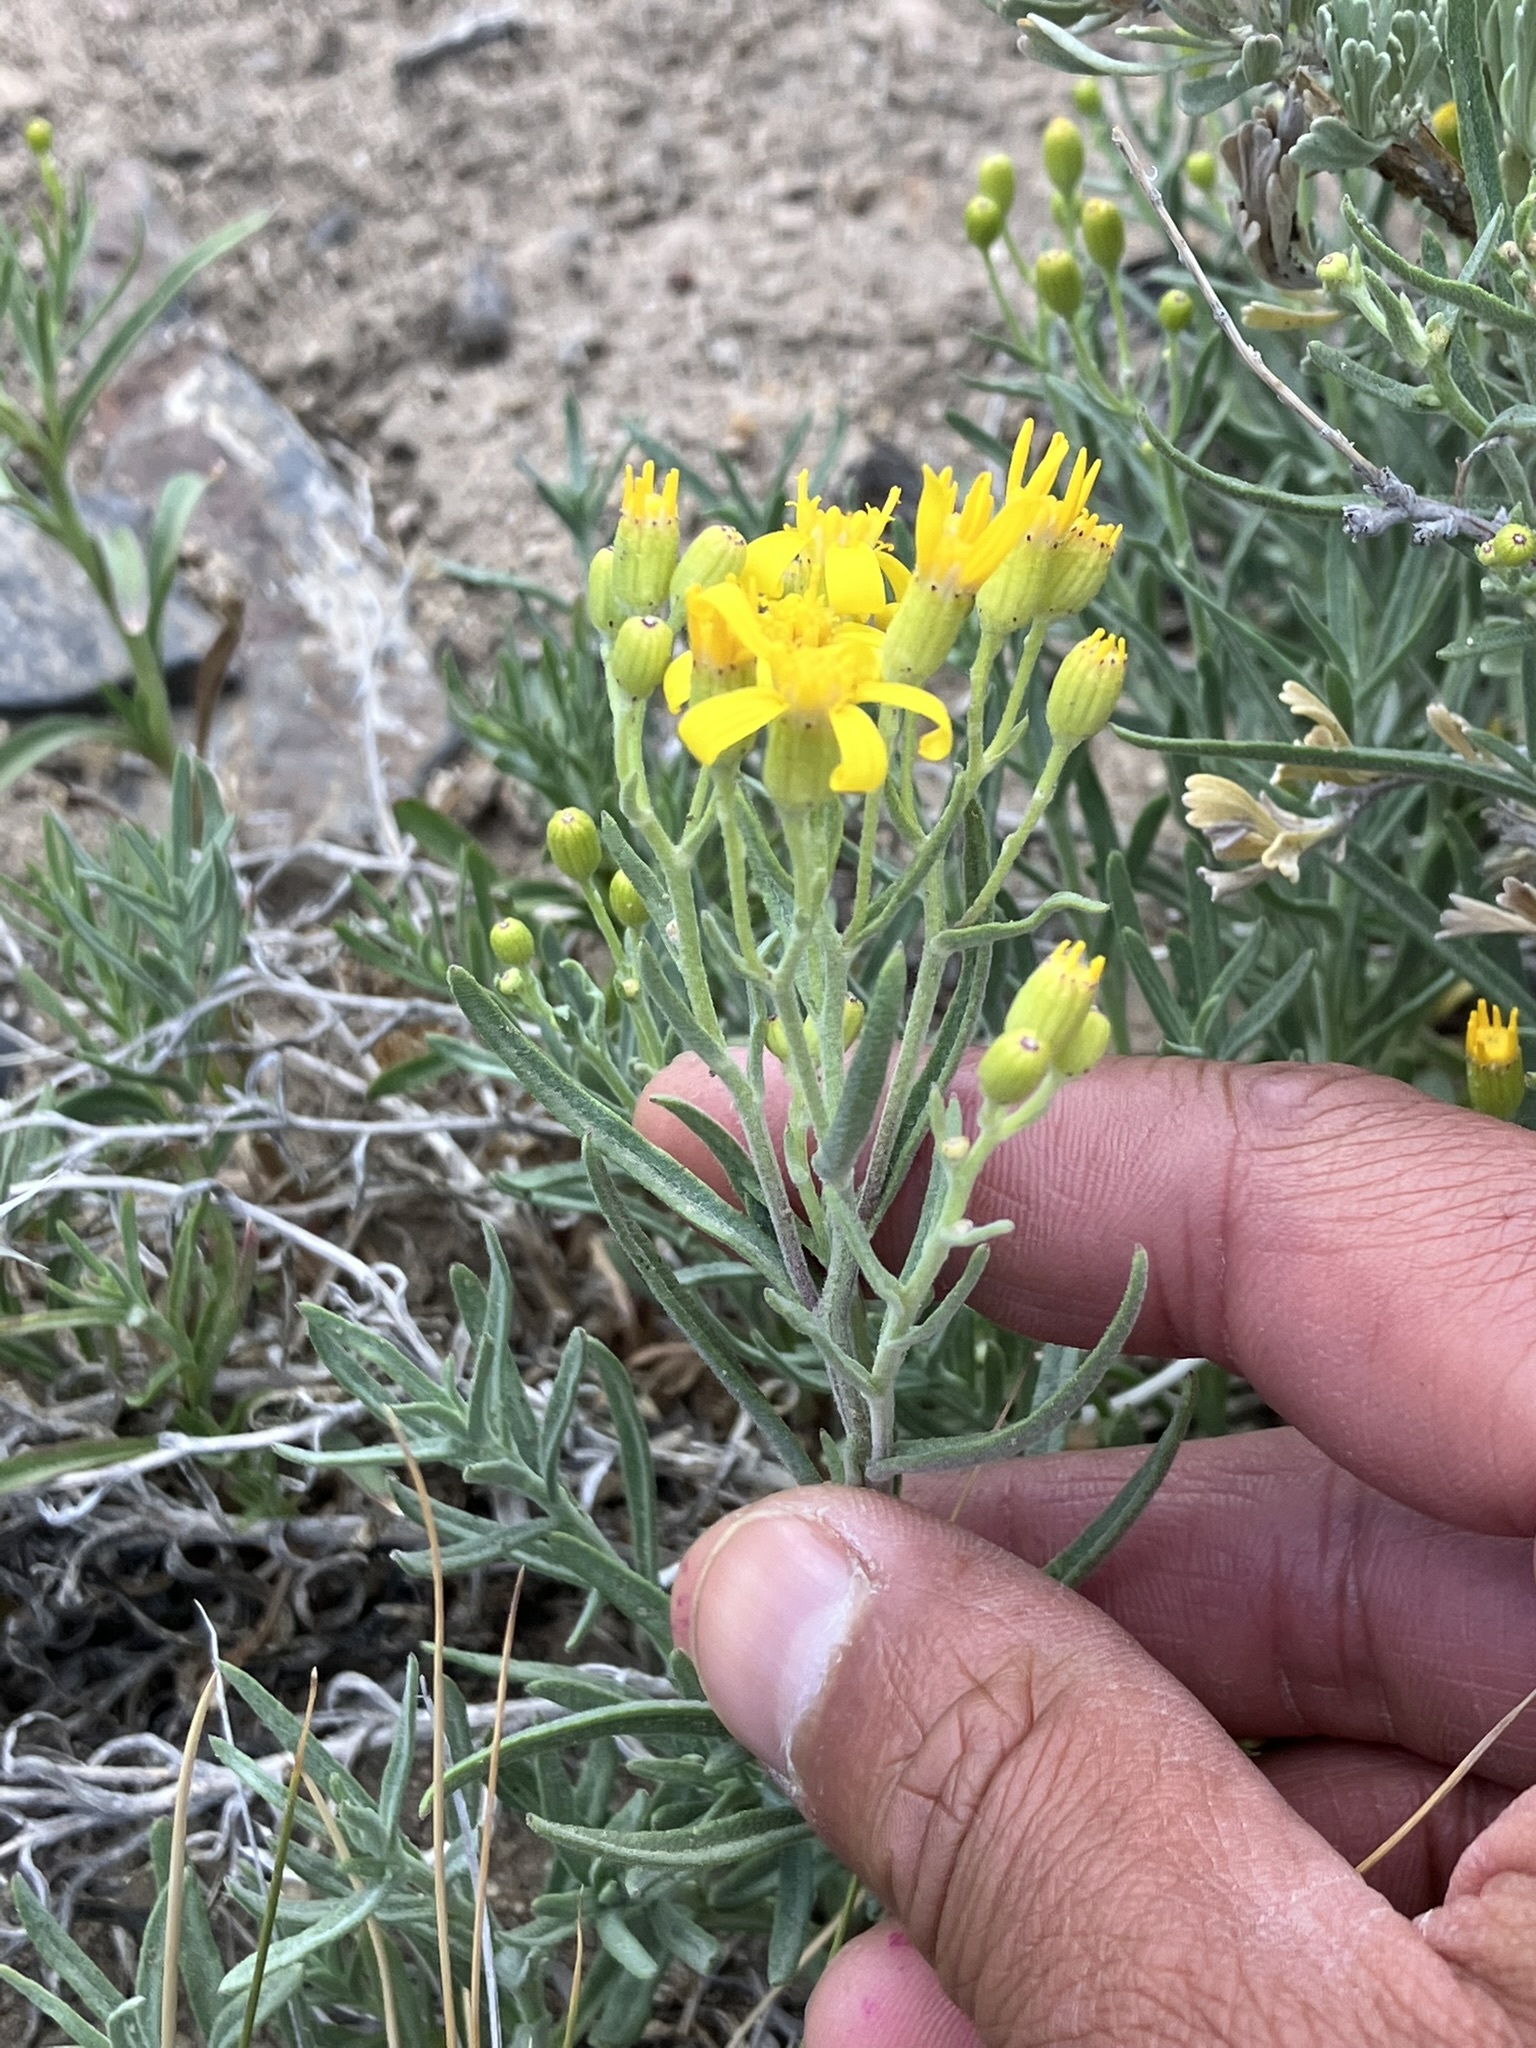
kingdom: Plantae
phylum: Tracheophyta
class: Magnoliopsida
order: Asterales
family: Asteraceae
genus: Senecio
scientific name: Senecio spartioides
